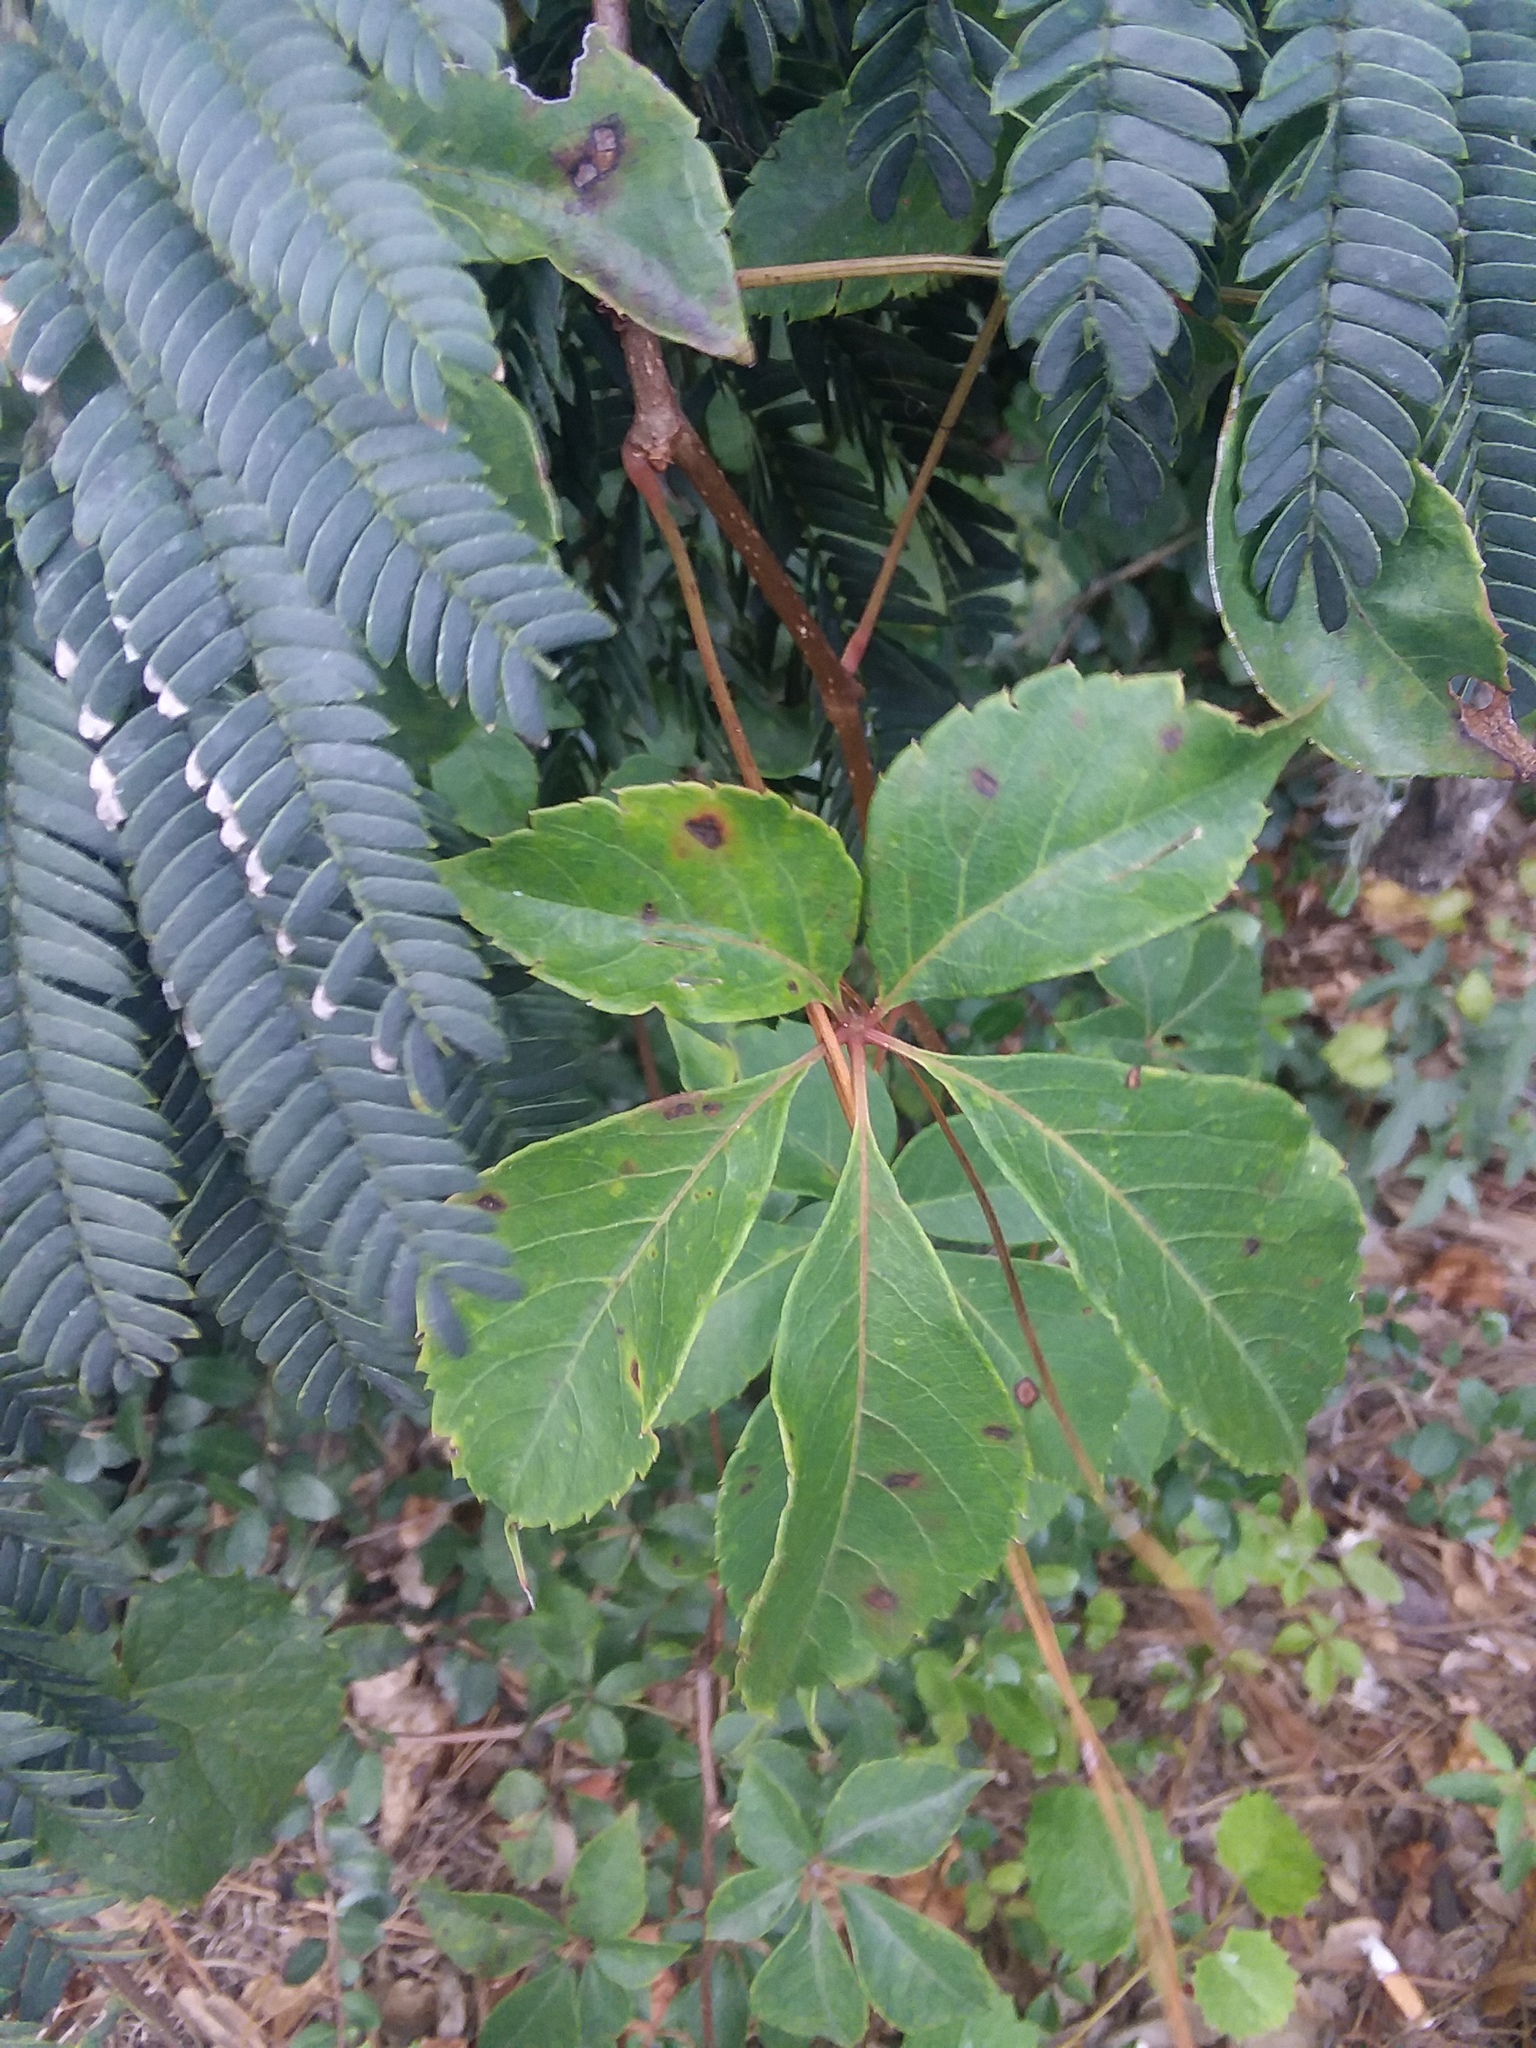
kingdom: Plantae
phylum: Tracheophyta
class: Magnoliopsida
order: Vitales
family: Vitaceae
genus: Parthenocissus
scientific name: Parthenocissus quinquefolia
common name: Virginia-creeper
